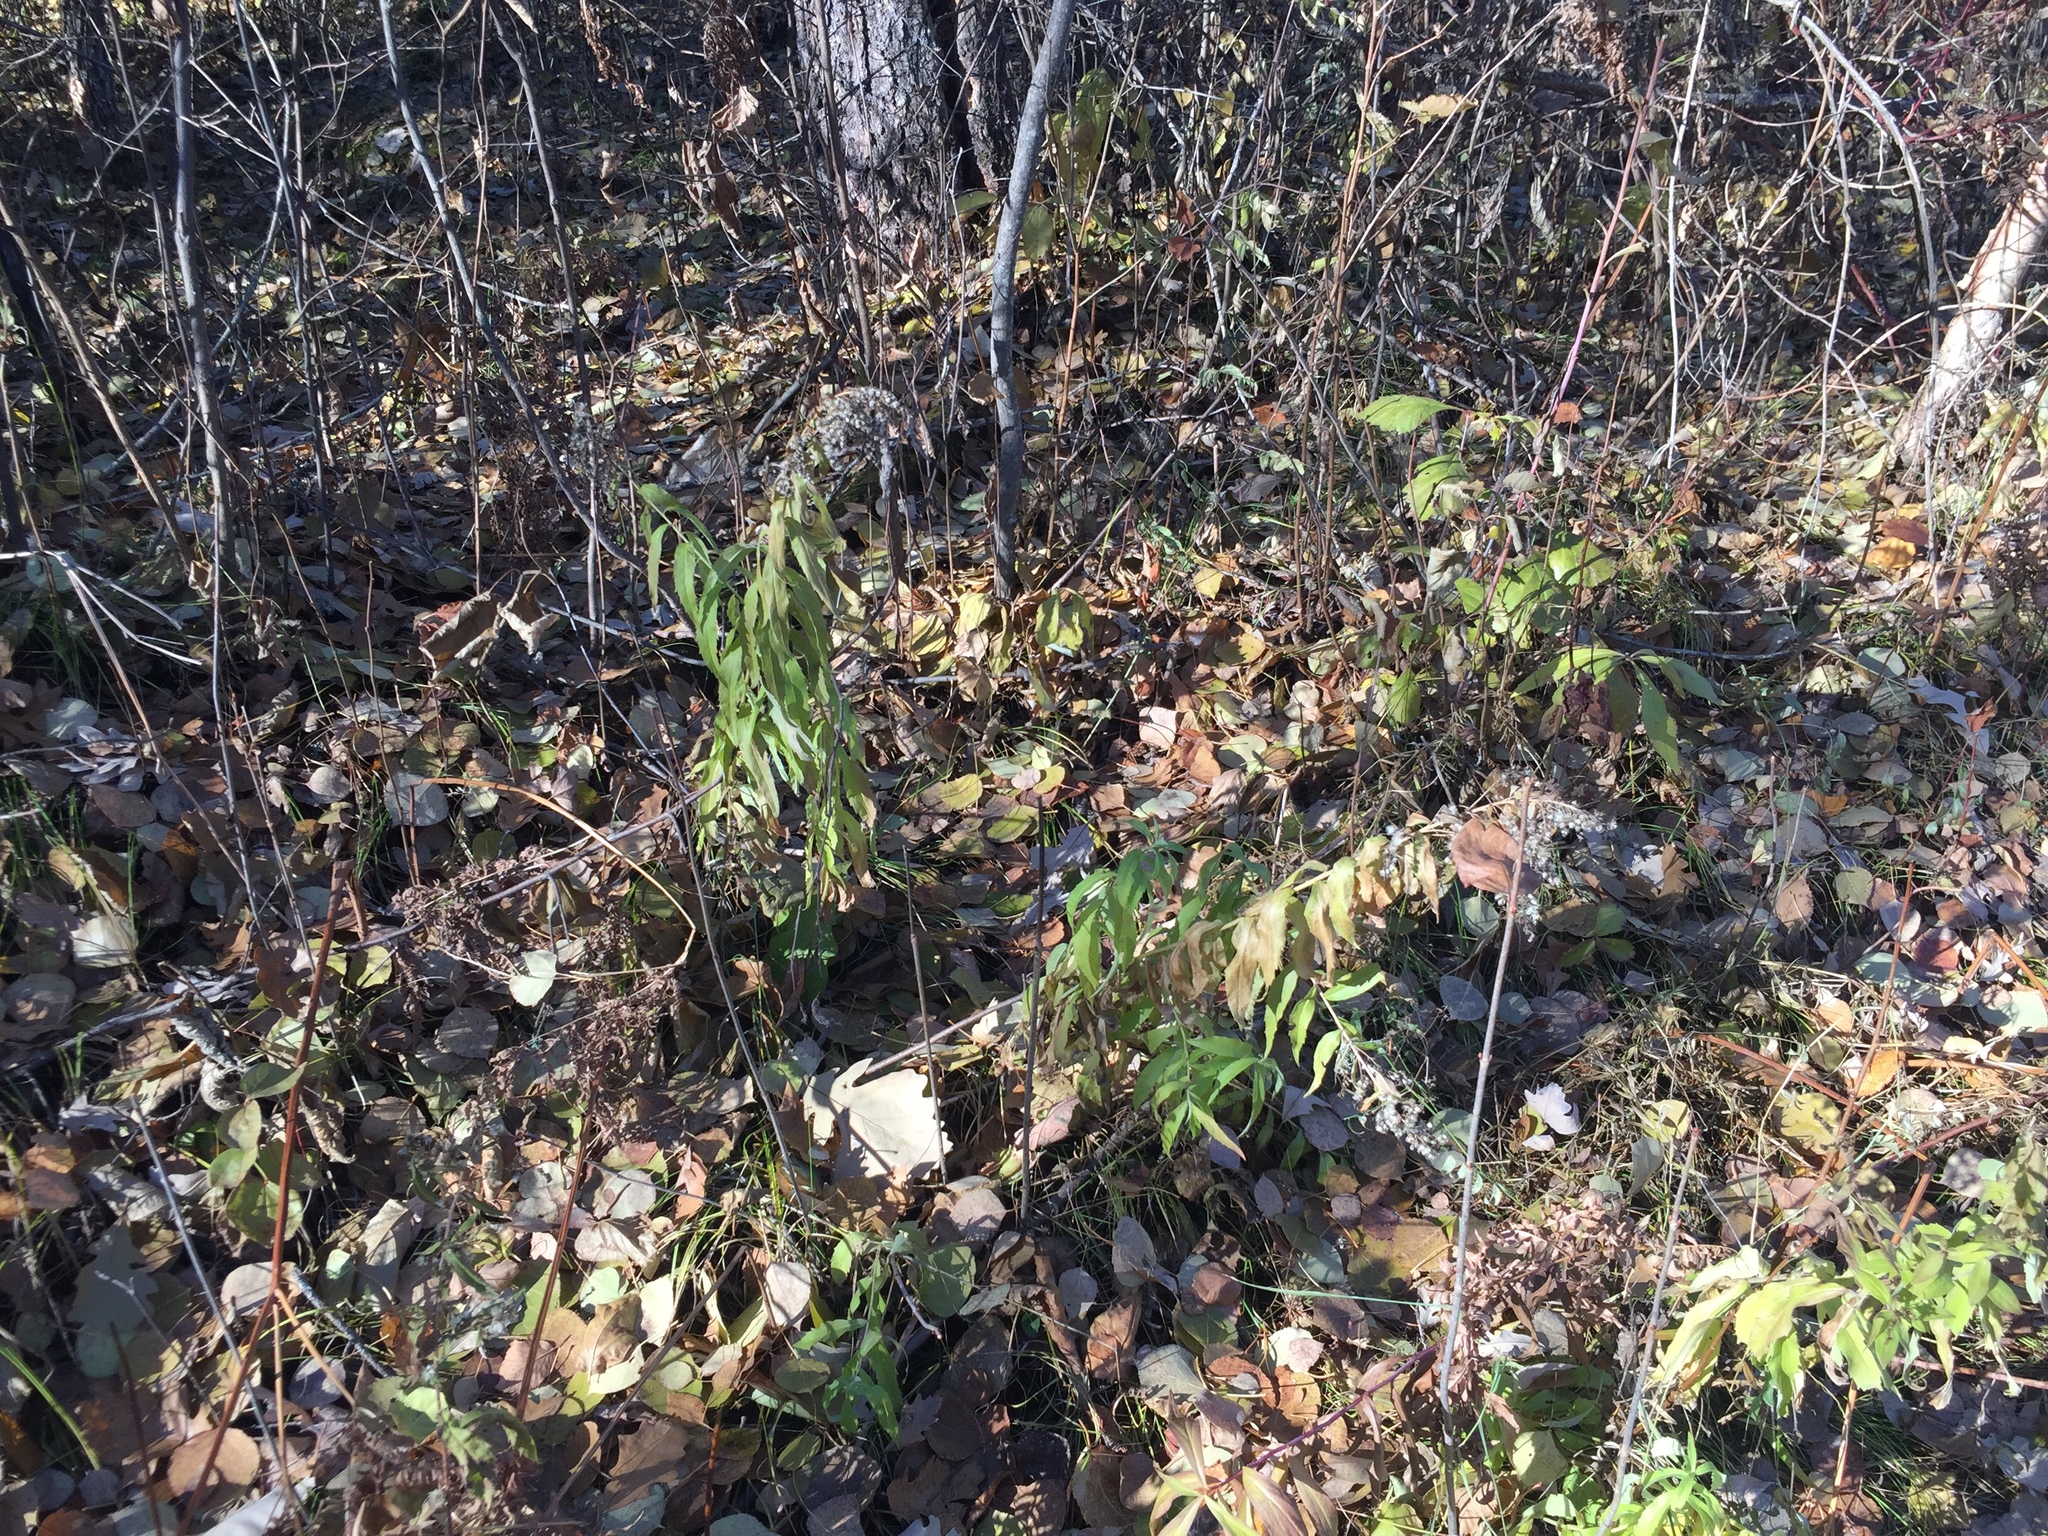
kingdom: Plantae
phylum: Tracheophyta
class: Magnoliopsida
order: Asterales
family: Asteraceae
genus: Solidago
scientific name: Solidago canadensis
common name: Canada goldenrod
